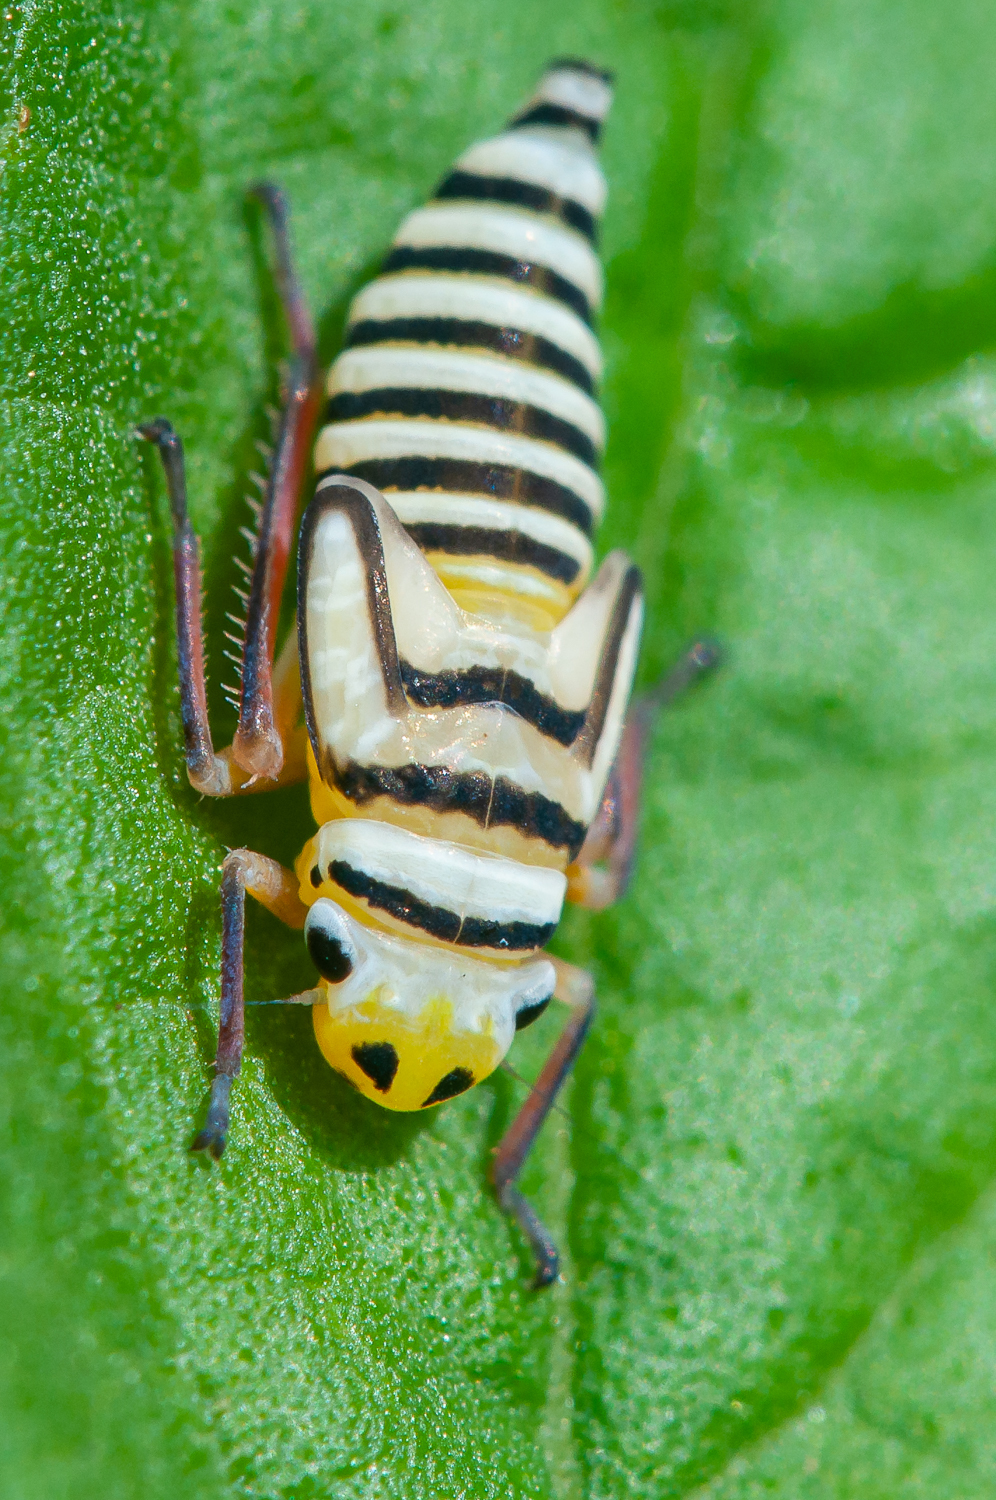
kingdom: Animalia
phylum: Arthropoda
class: Insecta
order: Hemiptera
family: Cicadellidae
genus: Agrosoma
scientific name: Agrosoma placetis
